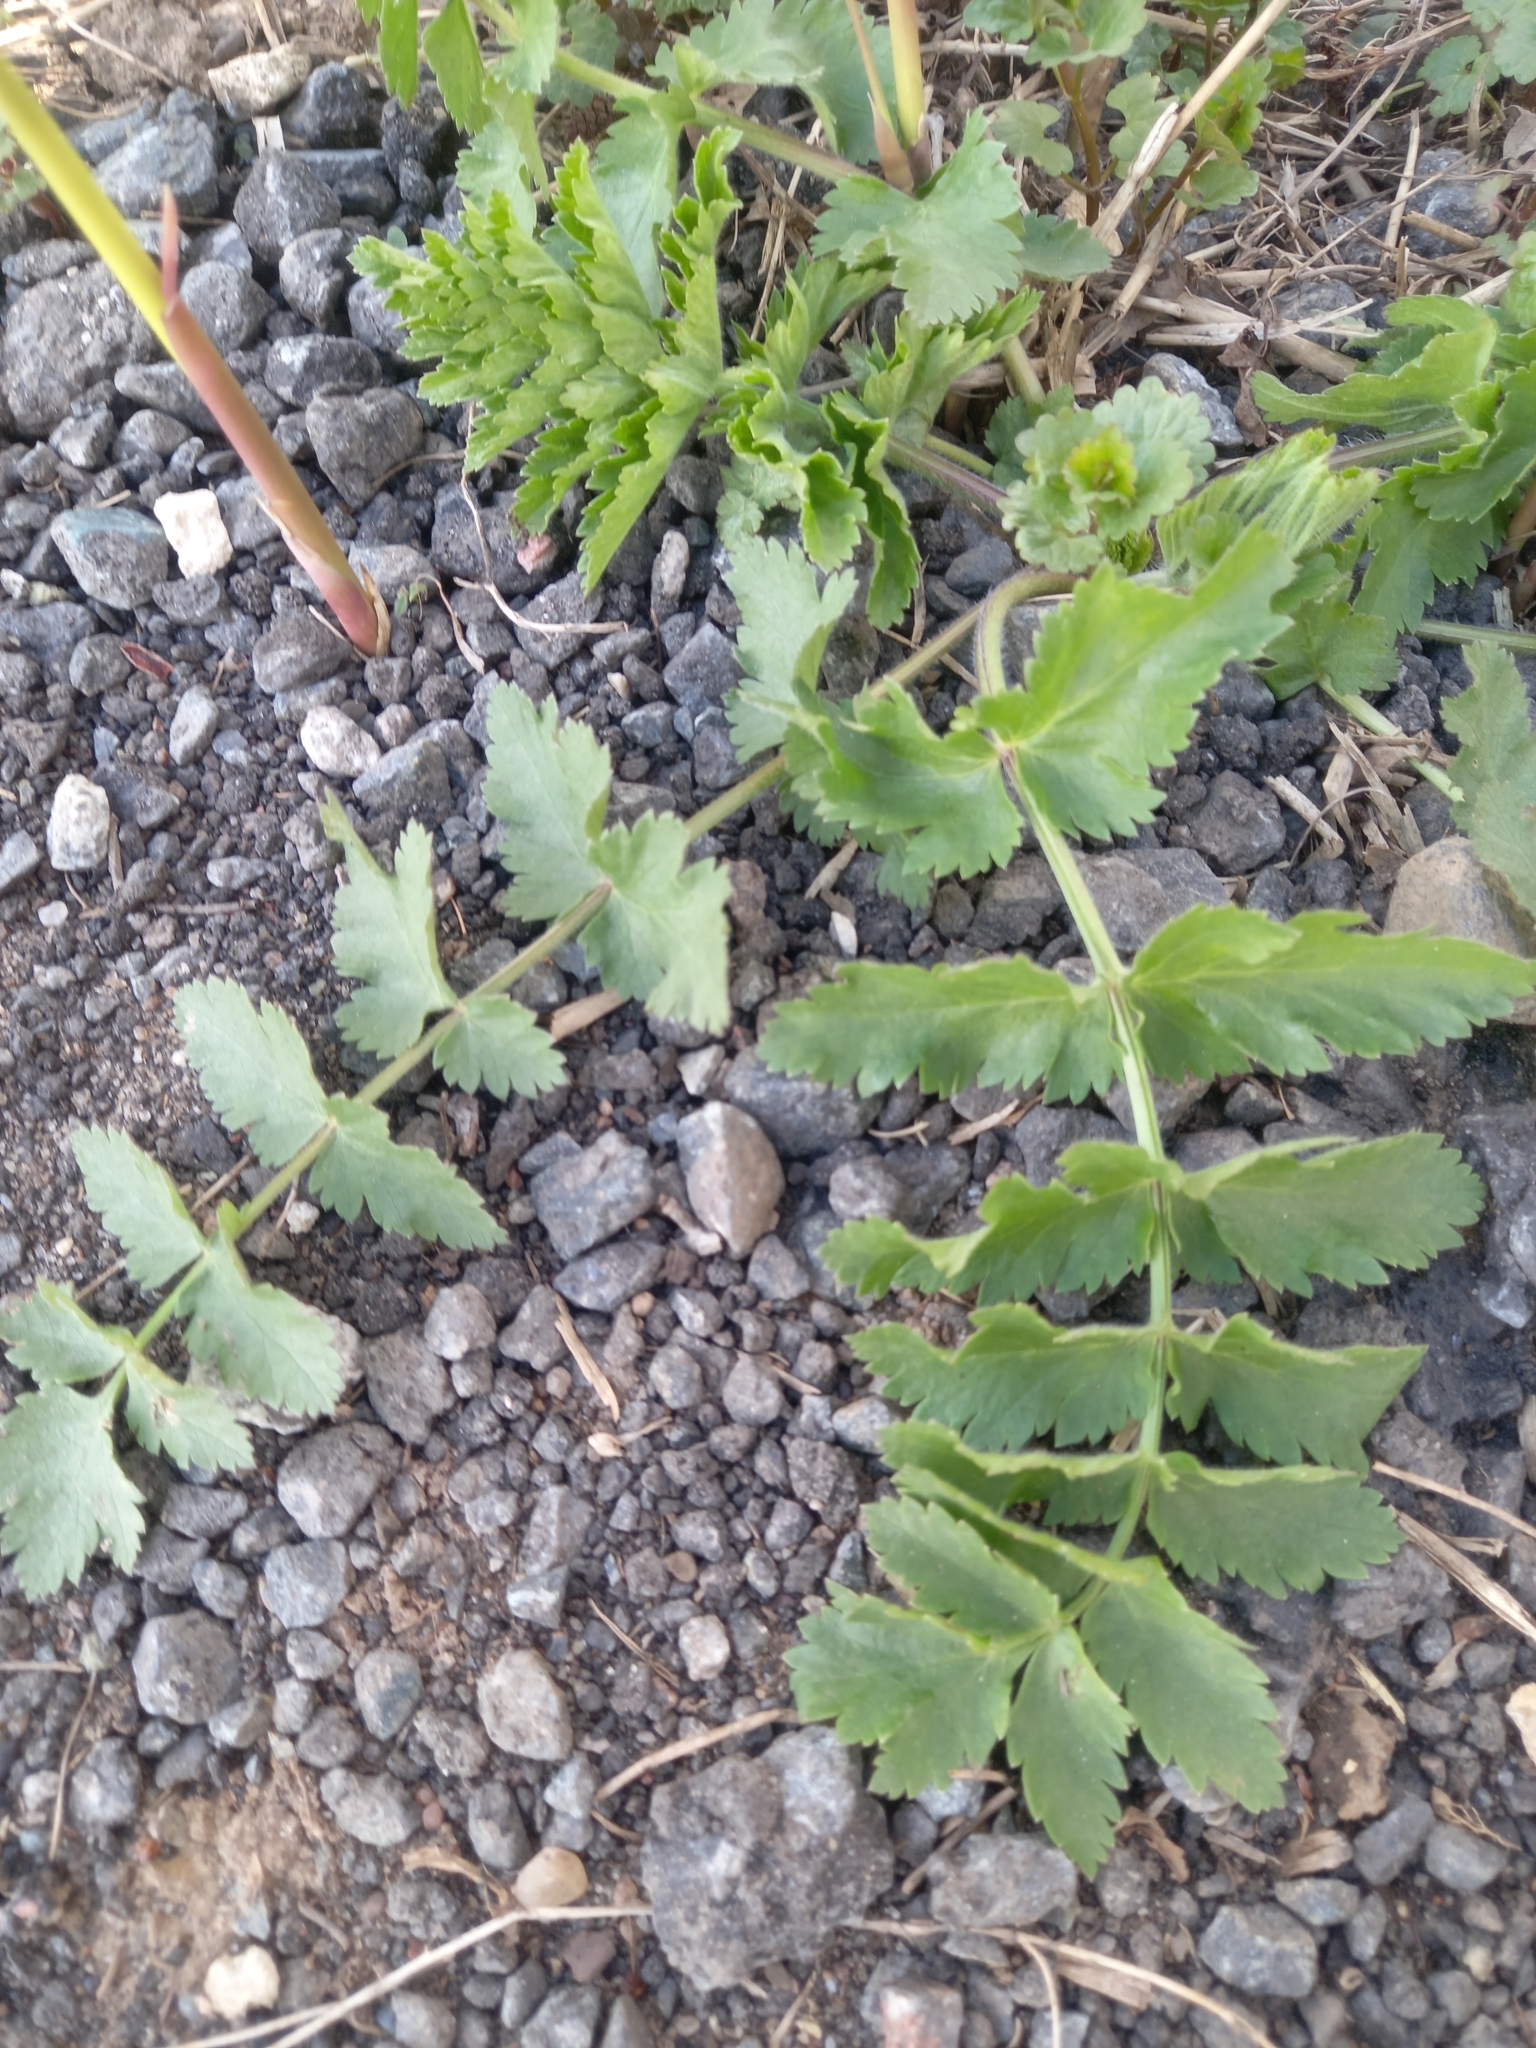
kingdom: Plantae
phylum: Tracheophyta
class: Magnoliopsida
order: Apiales
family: Apiaceae
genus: Pastinaca
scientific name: Pastinaca sativa
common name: Wild parsnip
